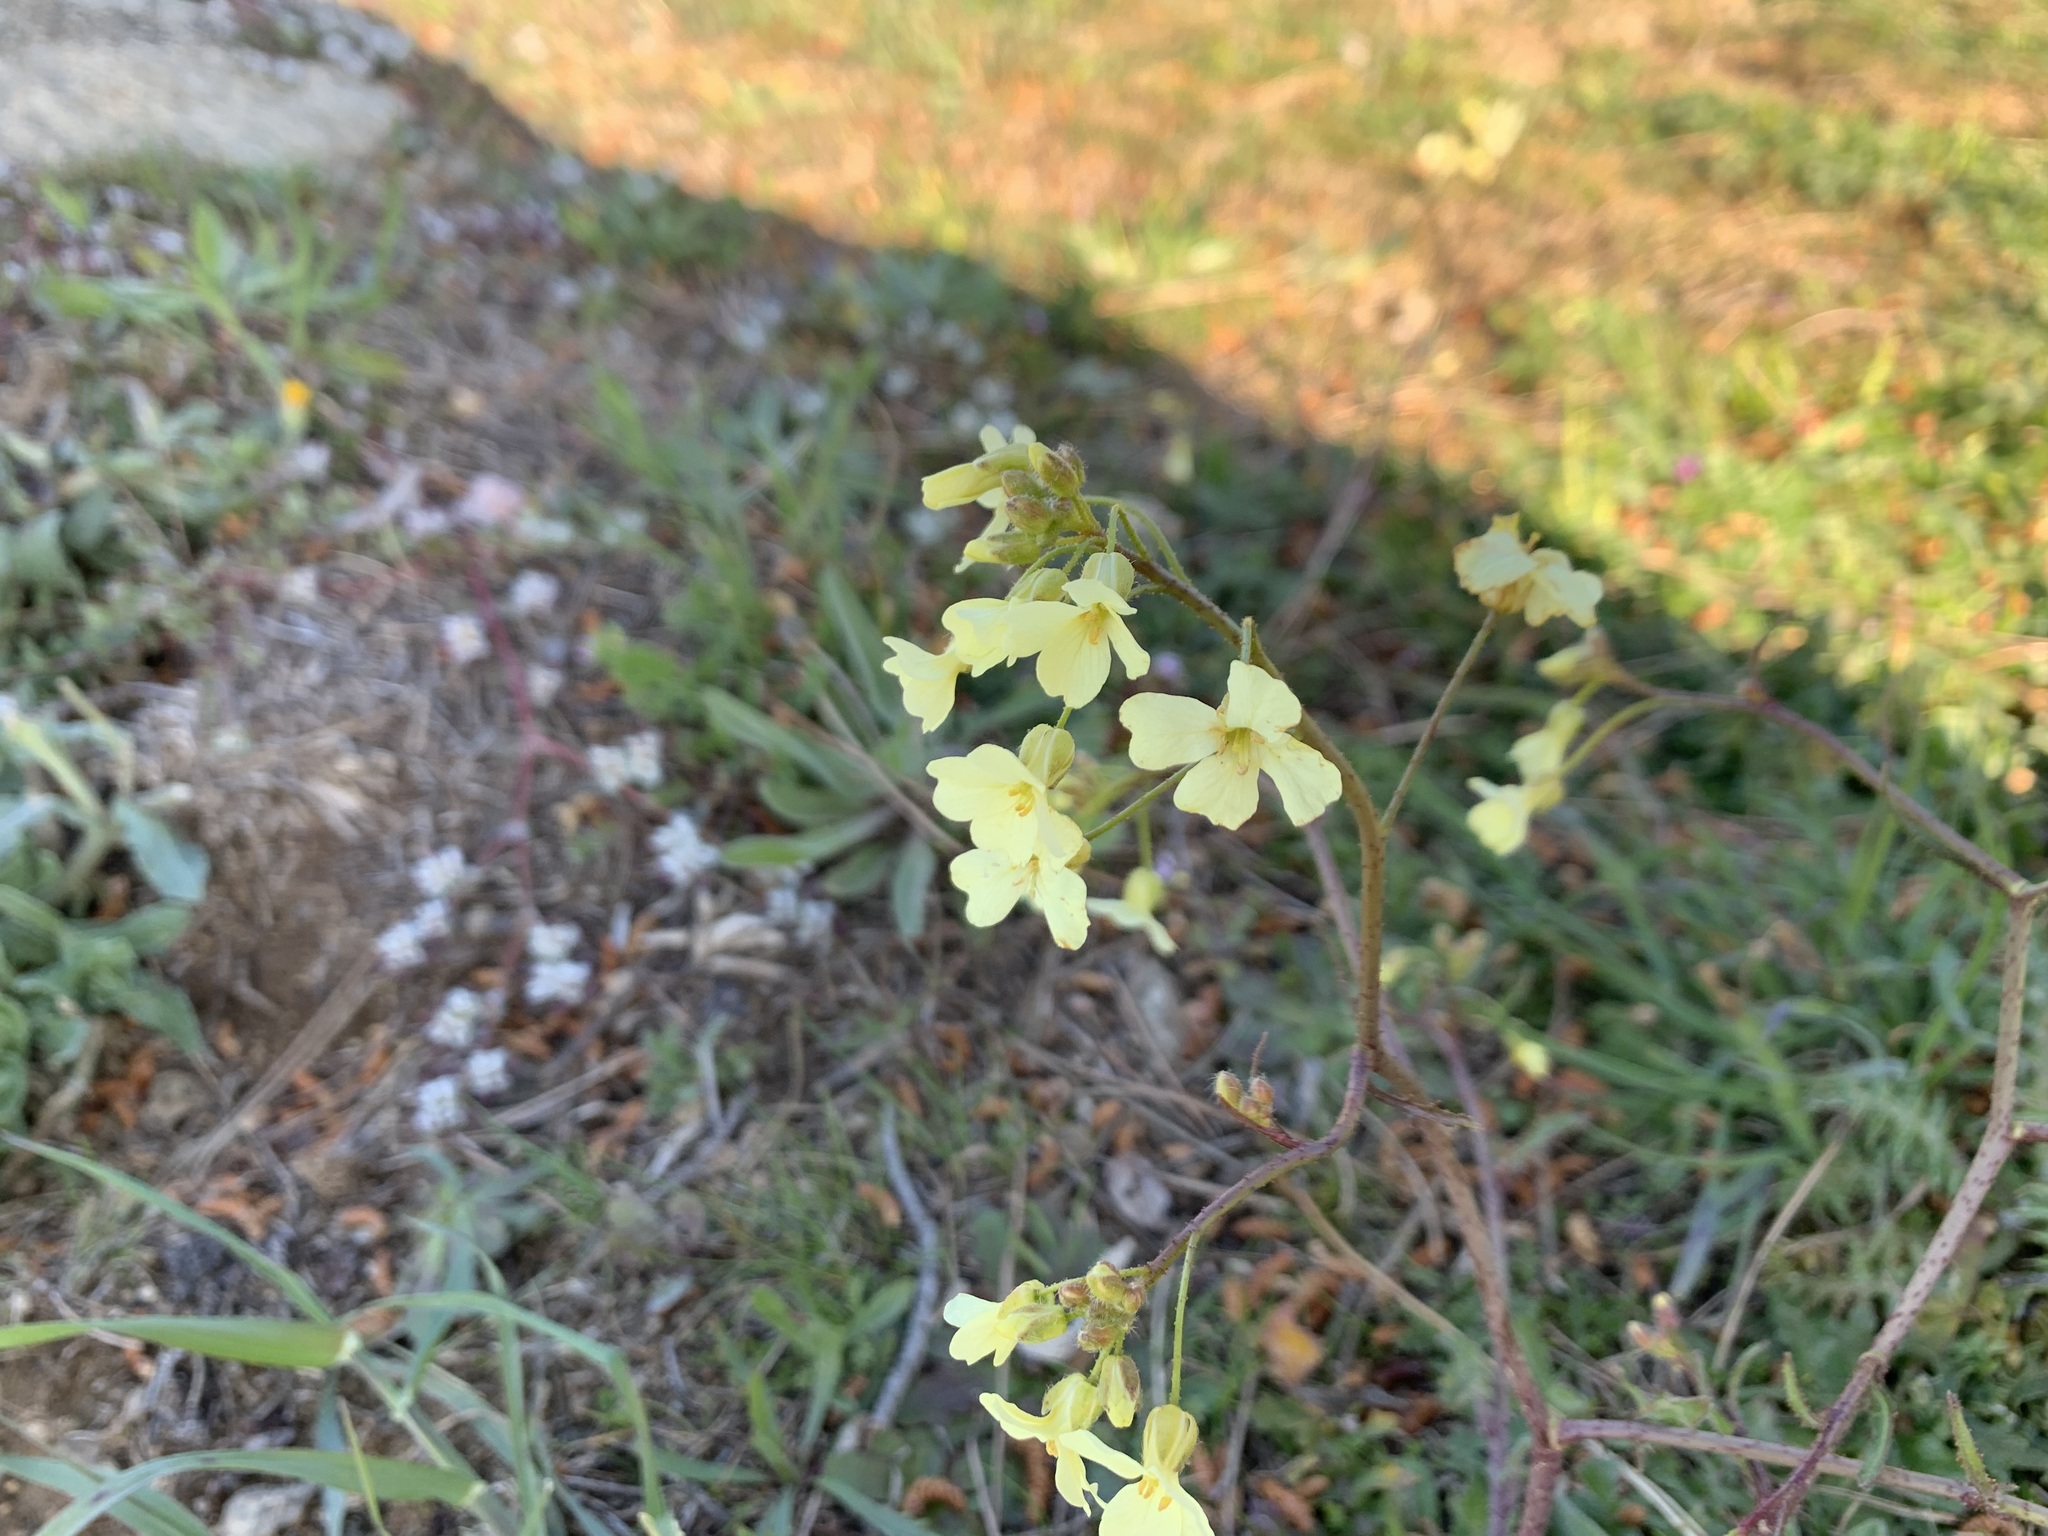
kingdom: Plantae
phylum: Tracheophyta
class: Magnoliopsida
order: Brassicales
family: Brassicaceae
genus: Bunias
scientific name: Bunias erucago
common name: Southern warty-cabbage
